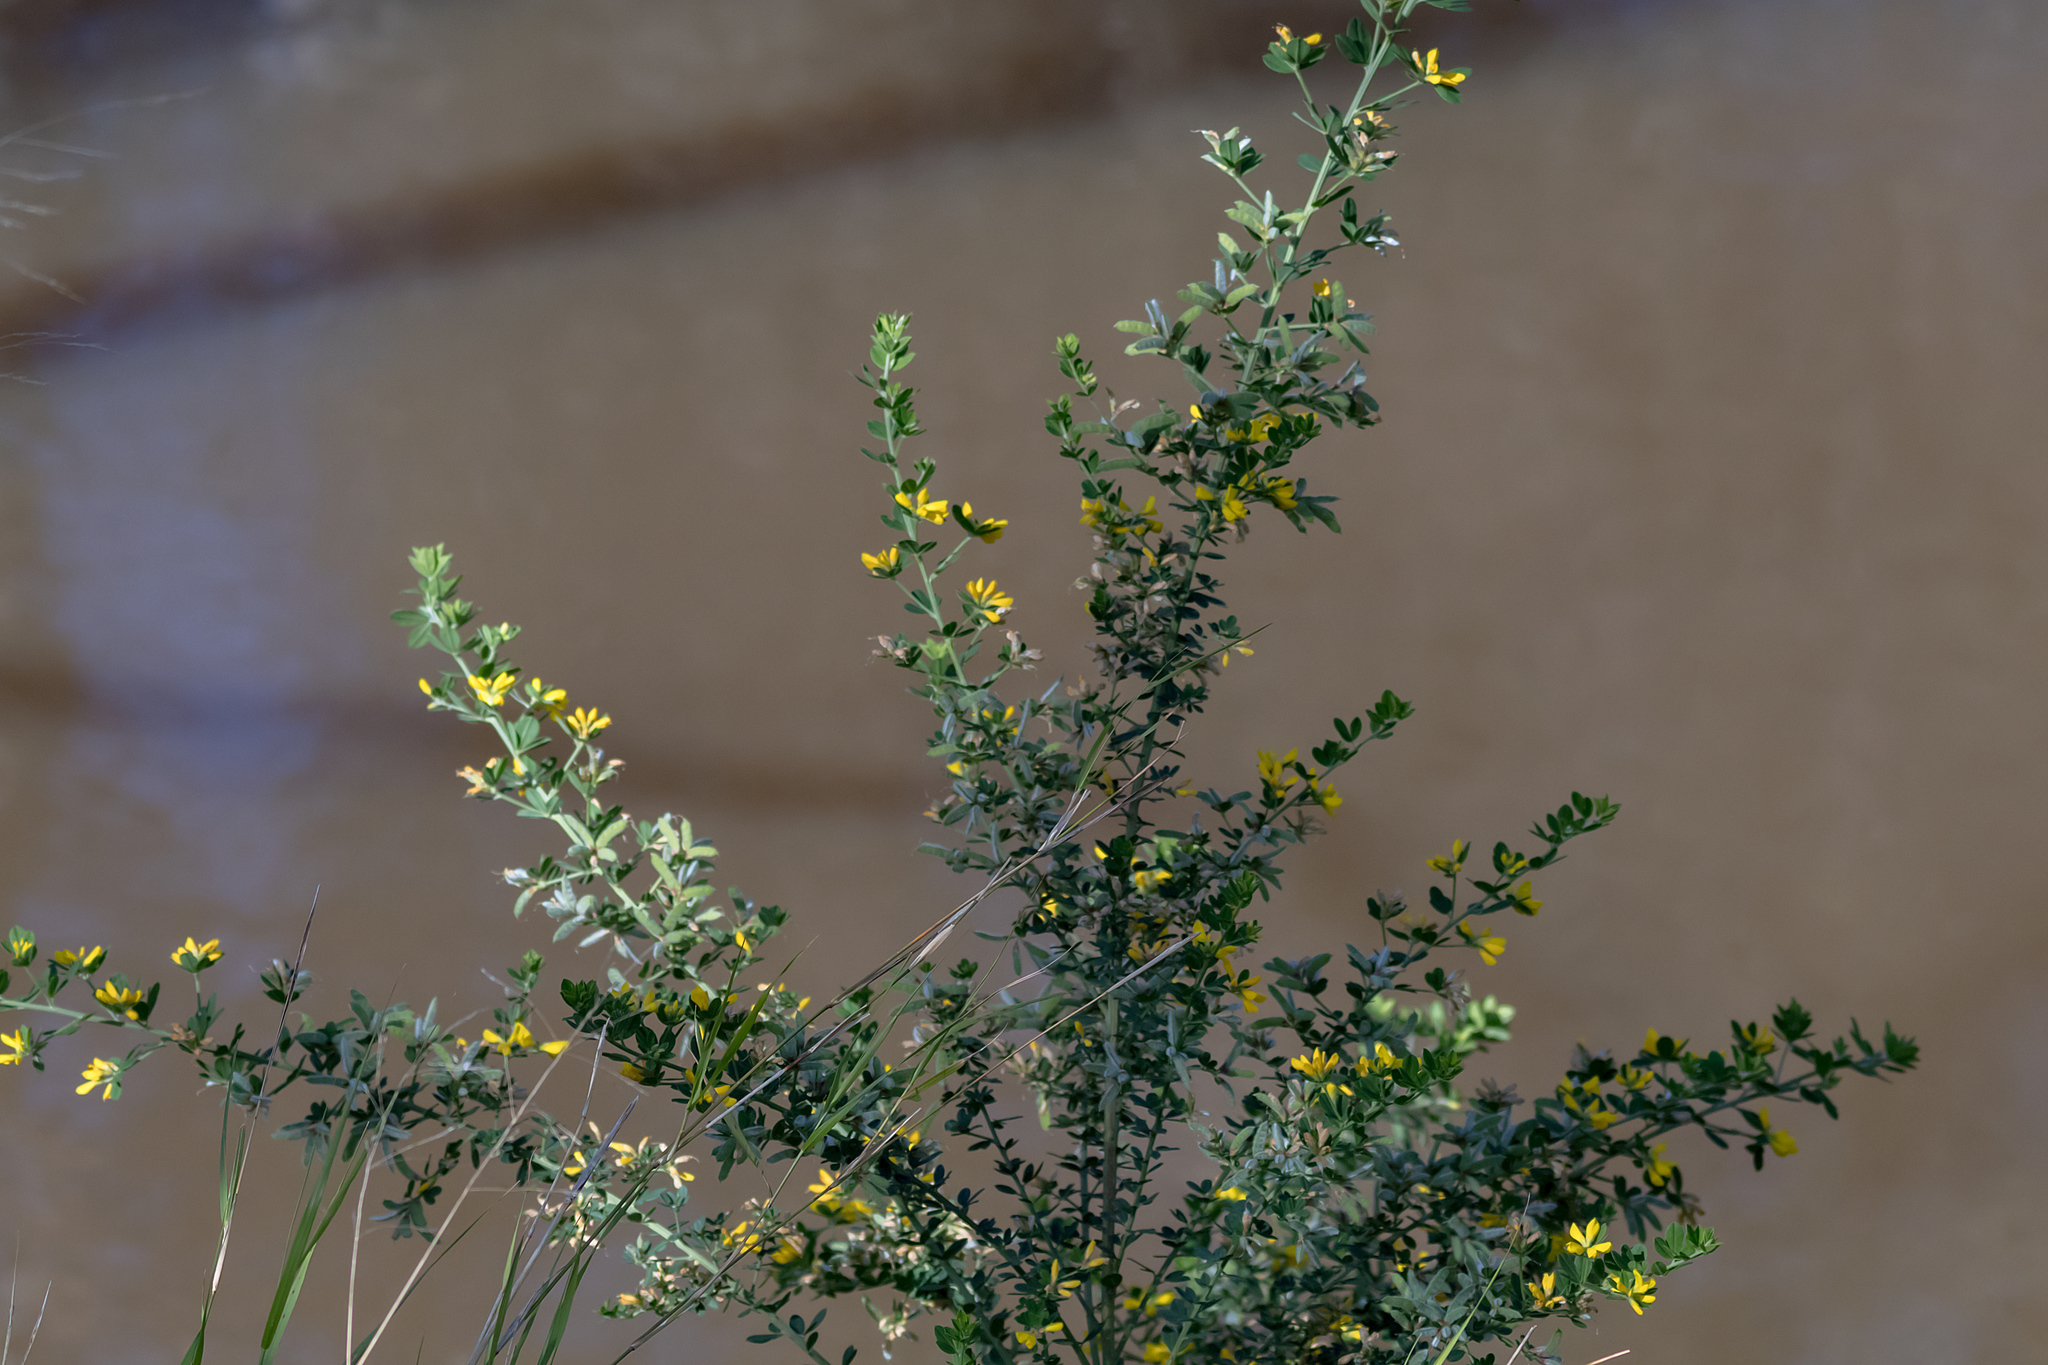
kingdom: Plantae
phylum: Tracheophyta
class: Magnoliopsida
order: Fabales
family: Fabaceae
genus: Genista
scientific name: Genista monspessulana
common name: Montpellier broom
